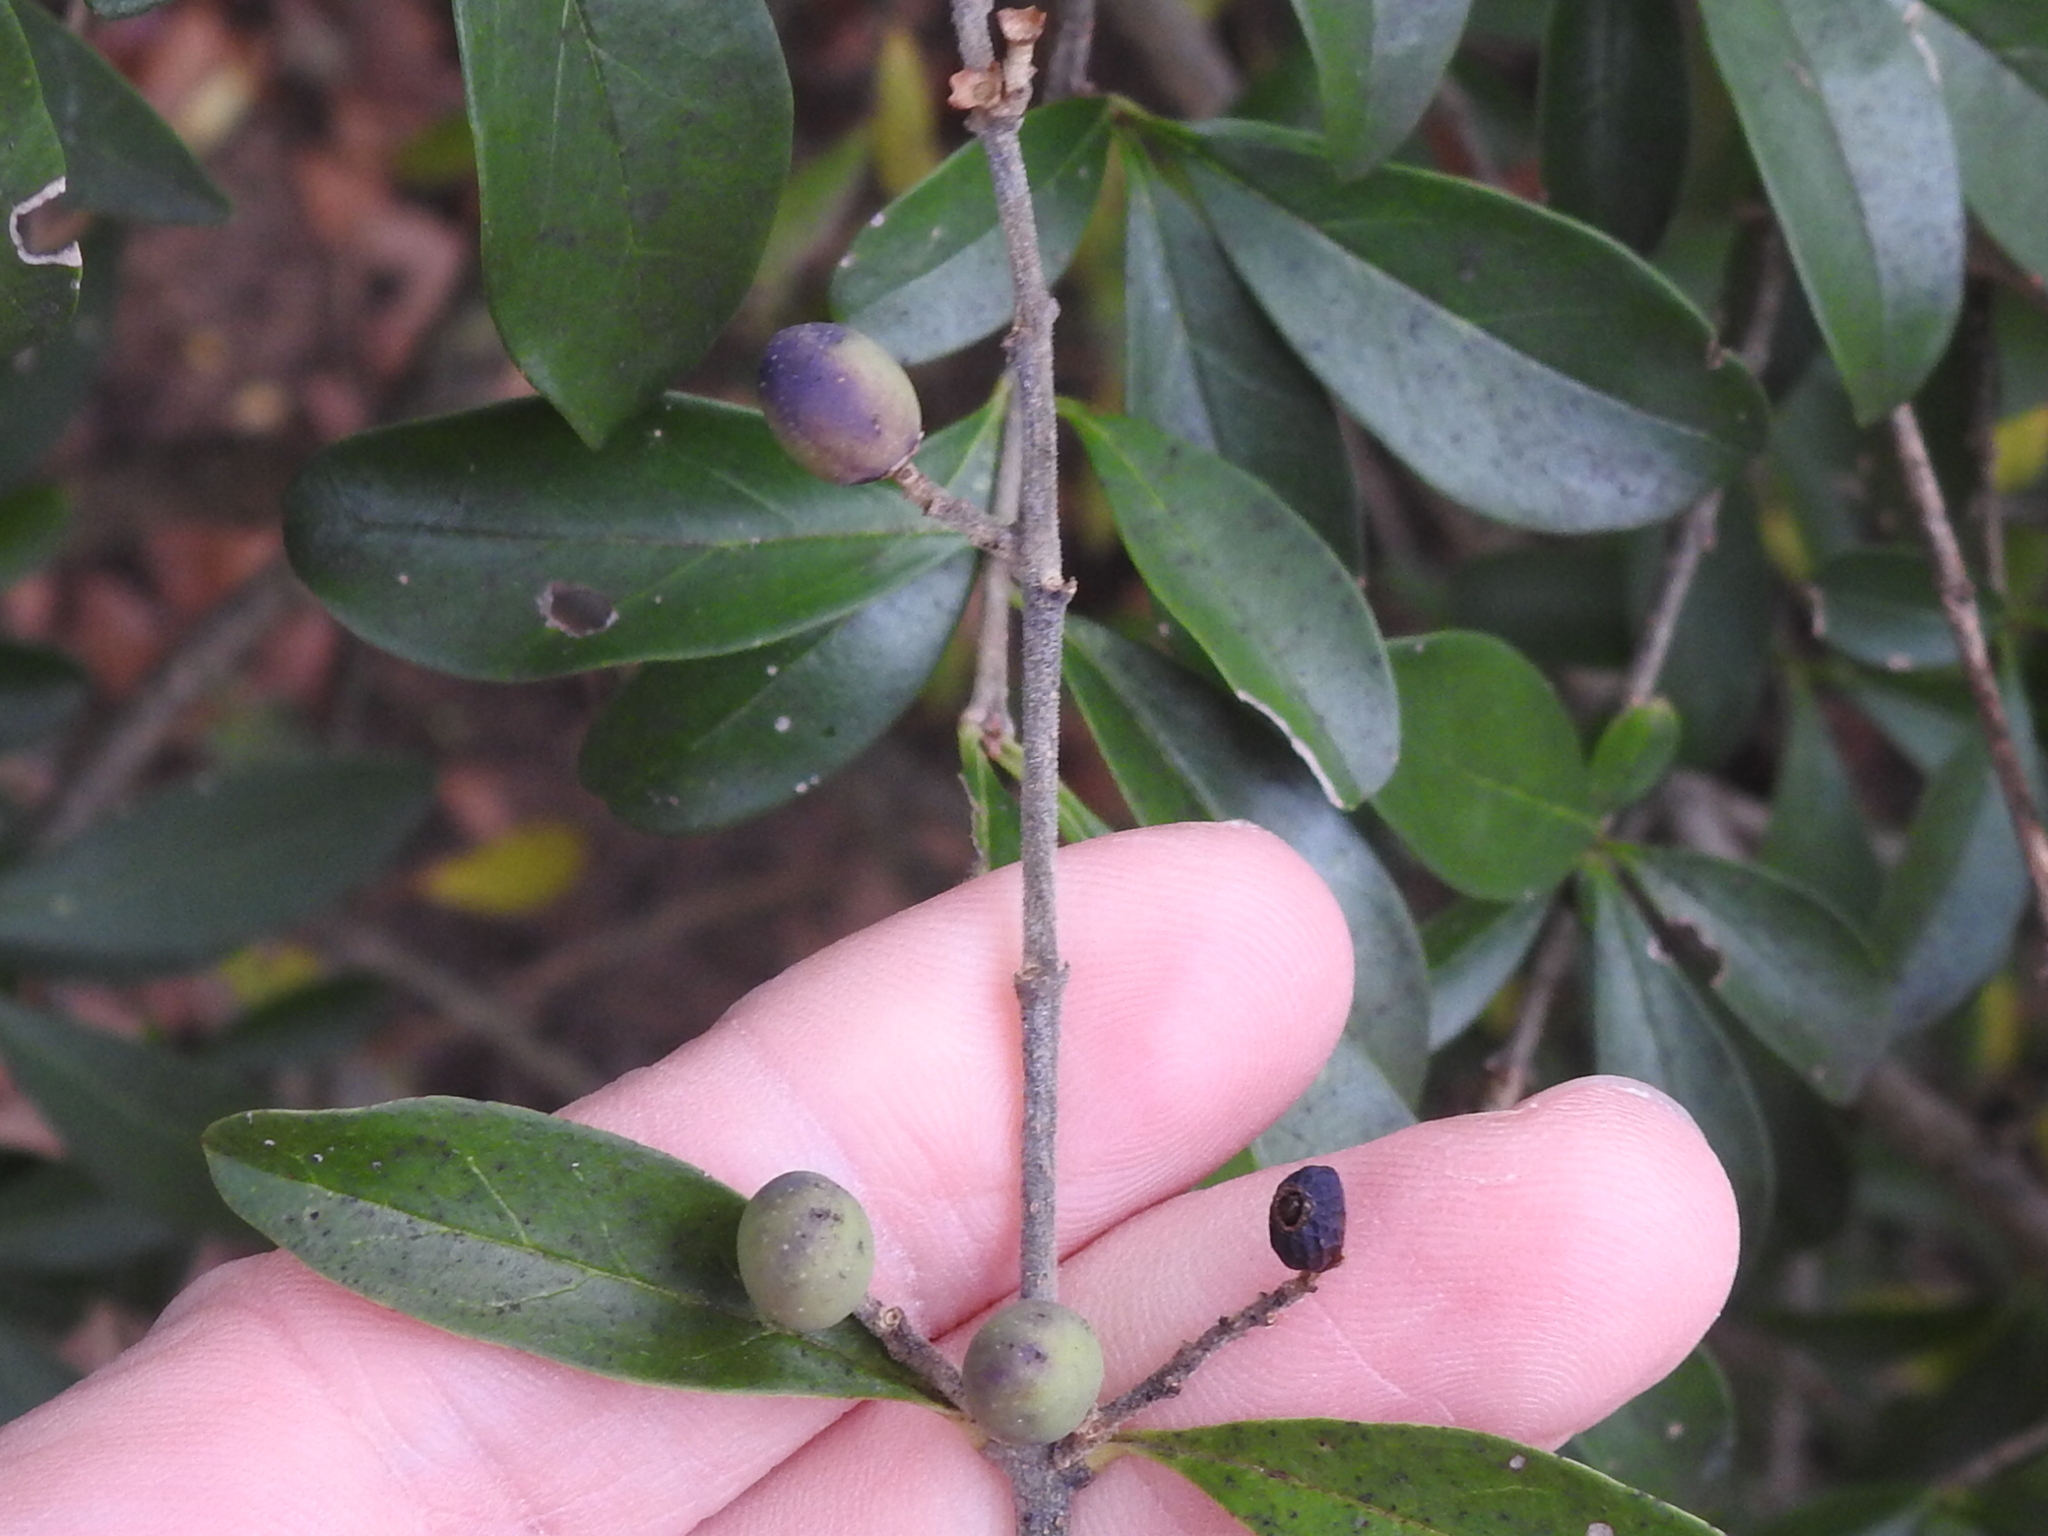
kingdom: Plantae
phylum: Tracheophyta
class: Magnoliopsida
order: Lamiales
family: Oleaceae
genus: Ligustrum
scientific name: Ligustrum quihoui
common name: Waxyleaf privet
